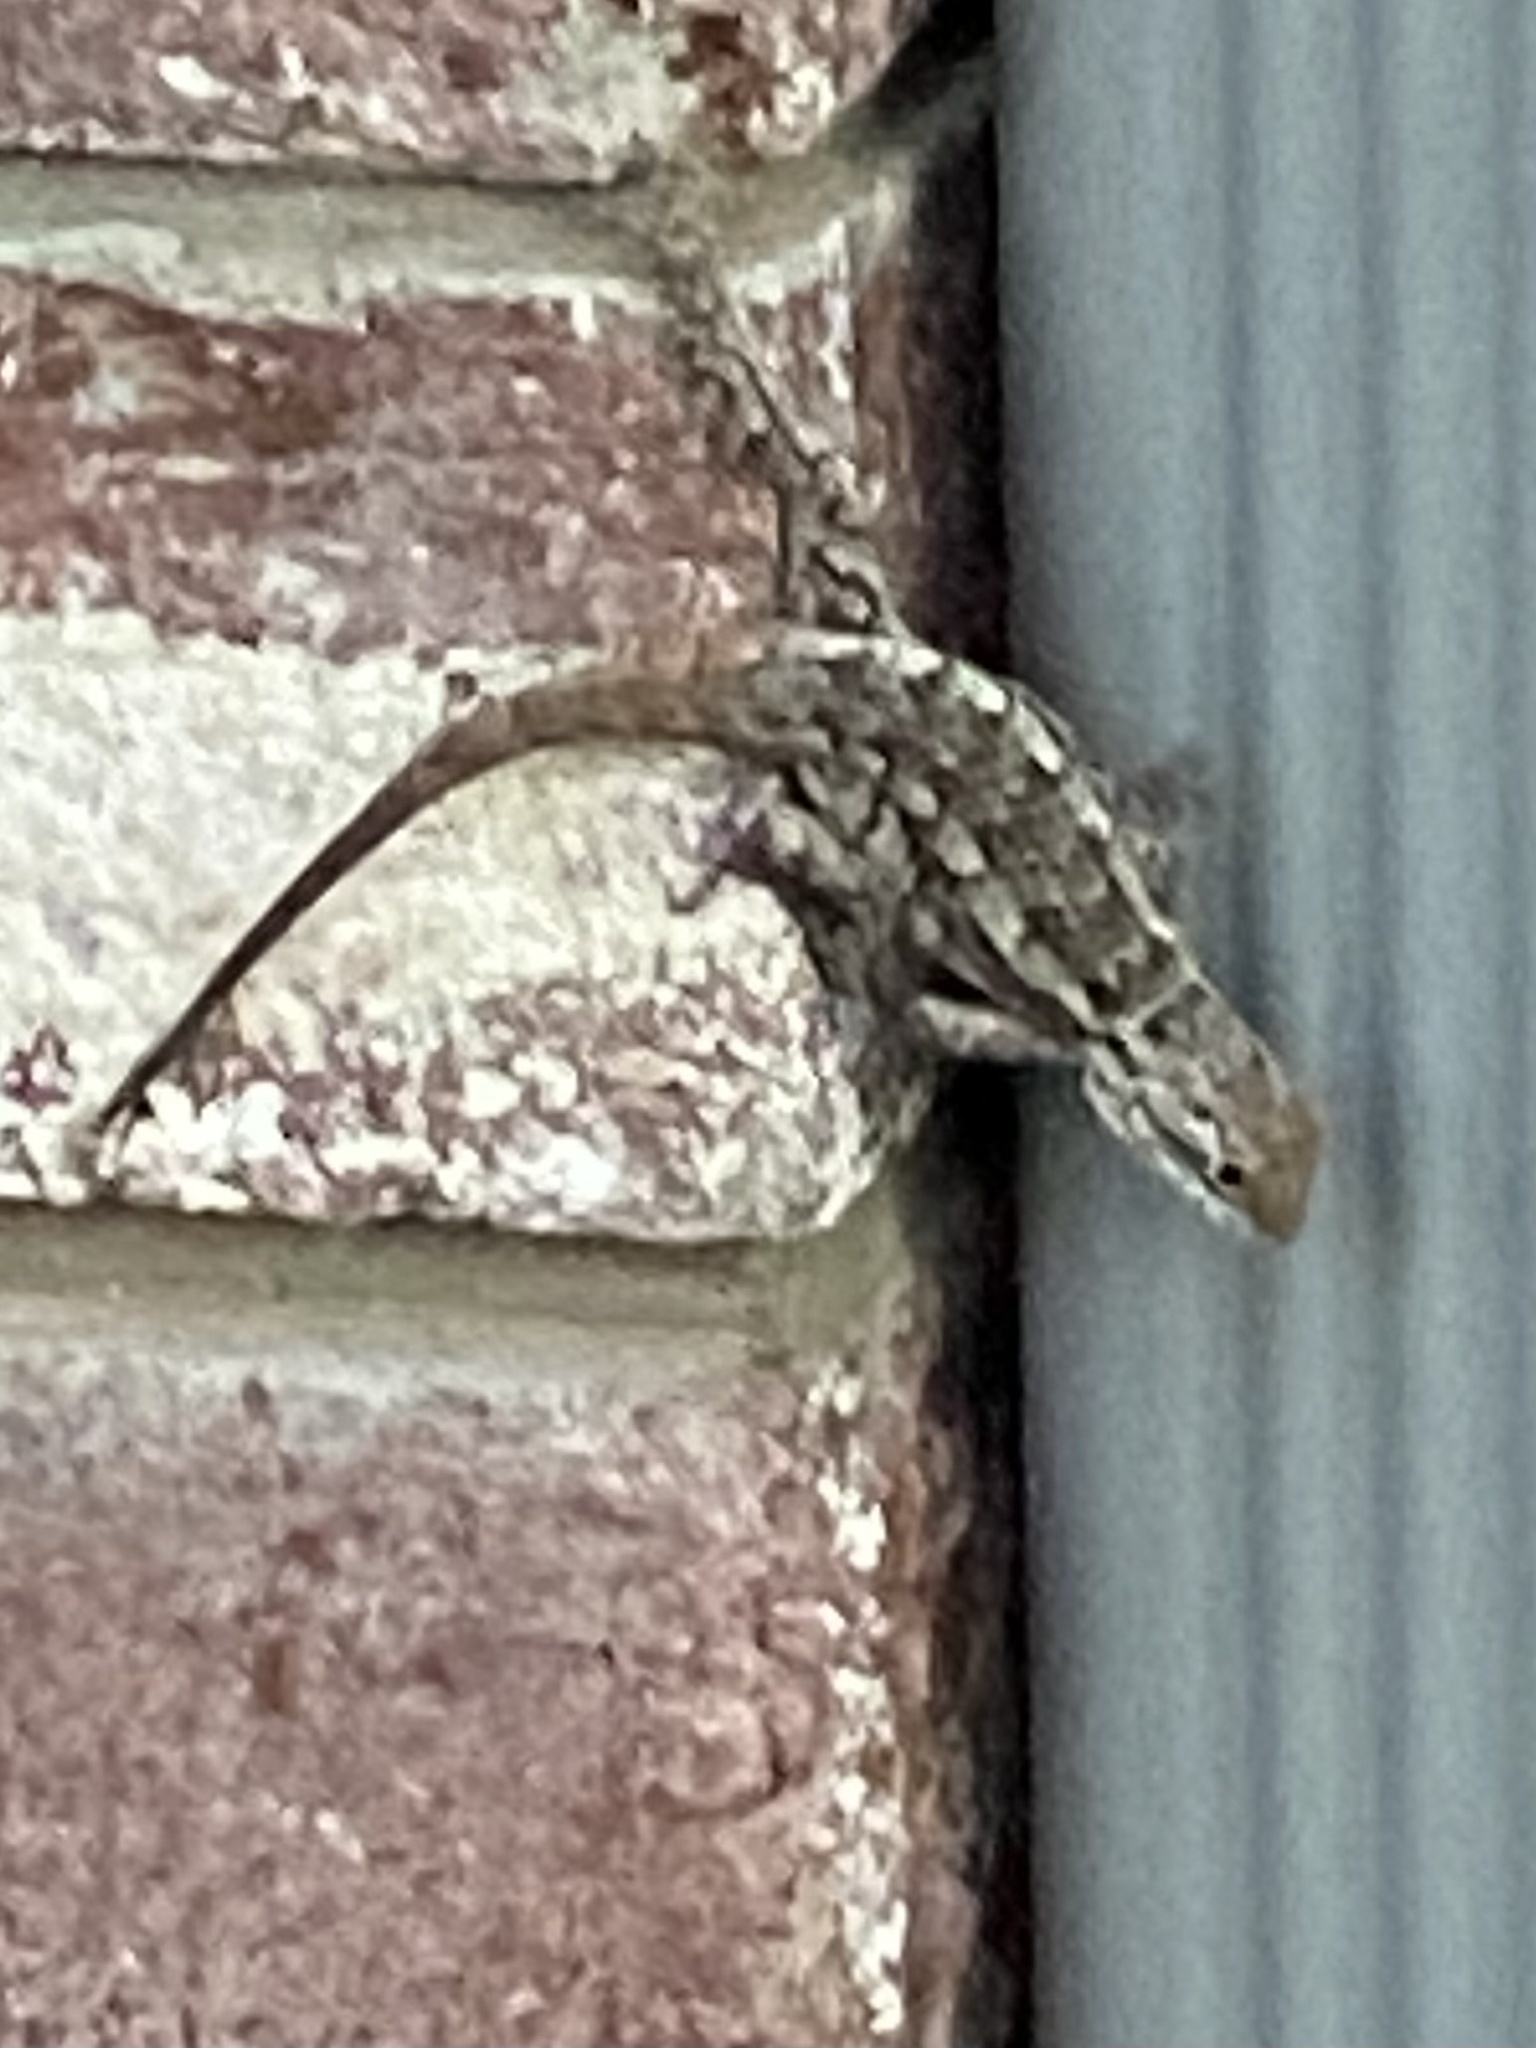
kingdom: Animalia
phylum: Chordata
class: Squamata
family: Phrynosomatidae
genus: Sceloporus
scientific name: Sceloporus olivaceus
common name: Texas spiny lizard
